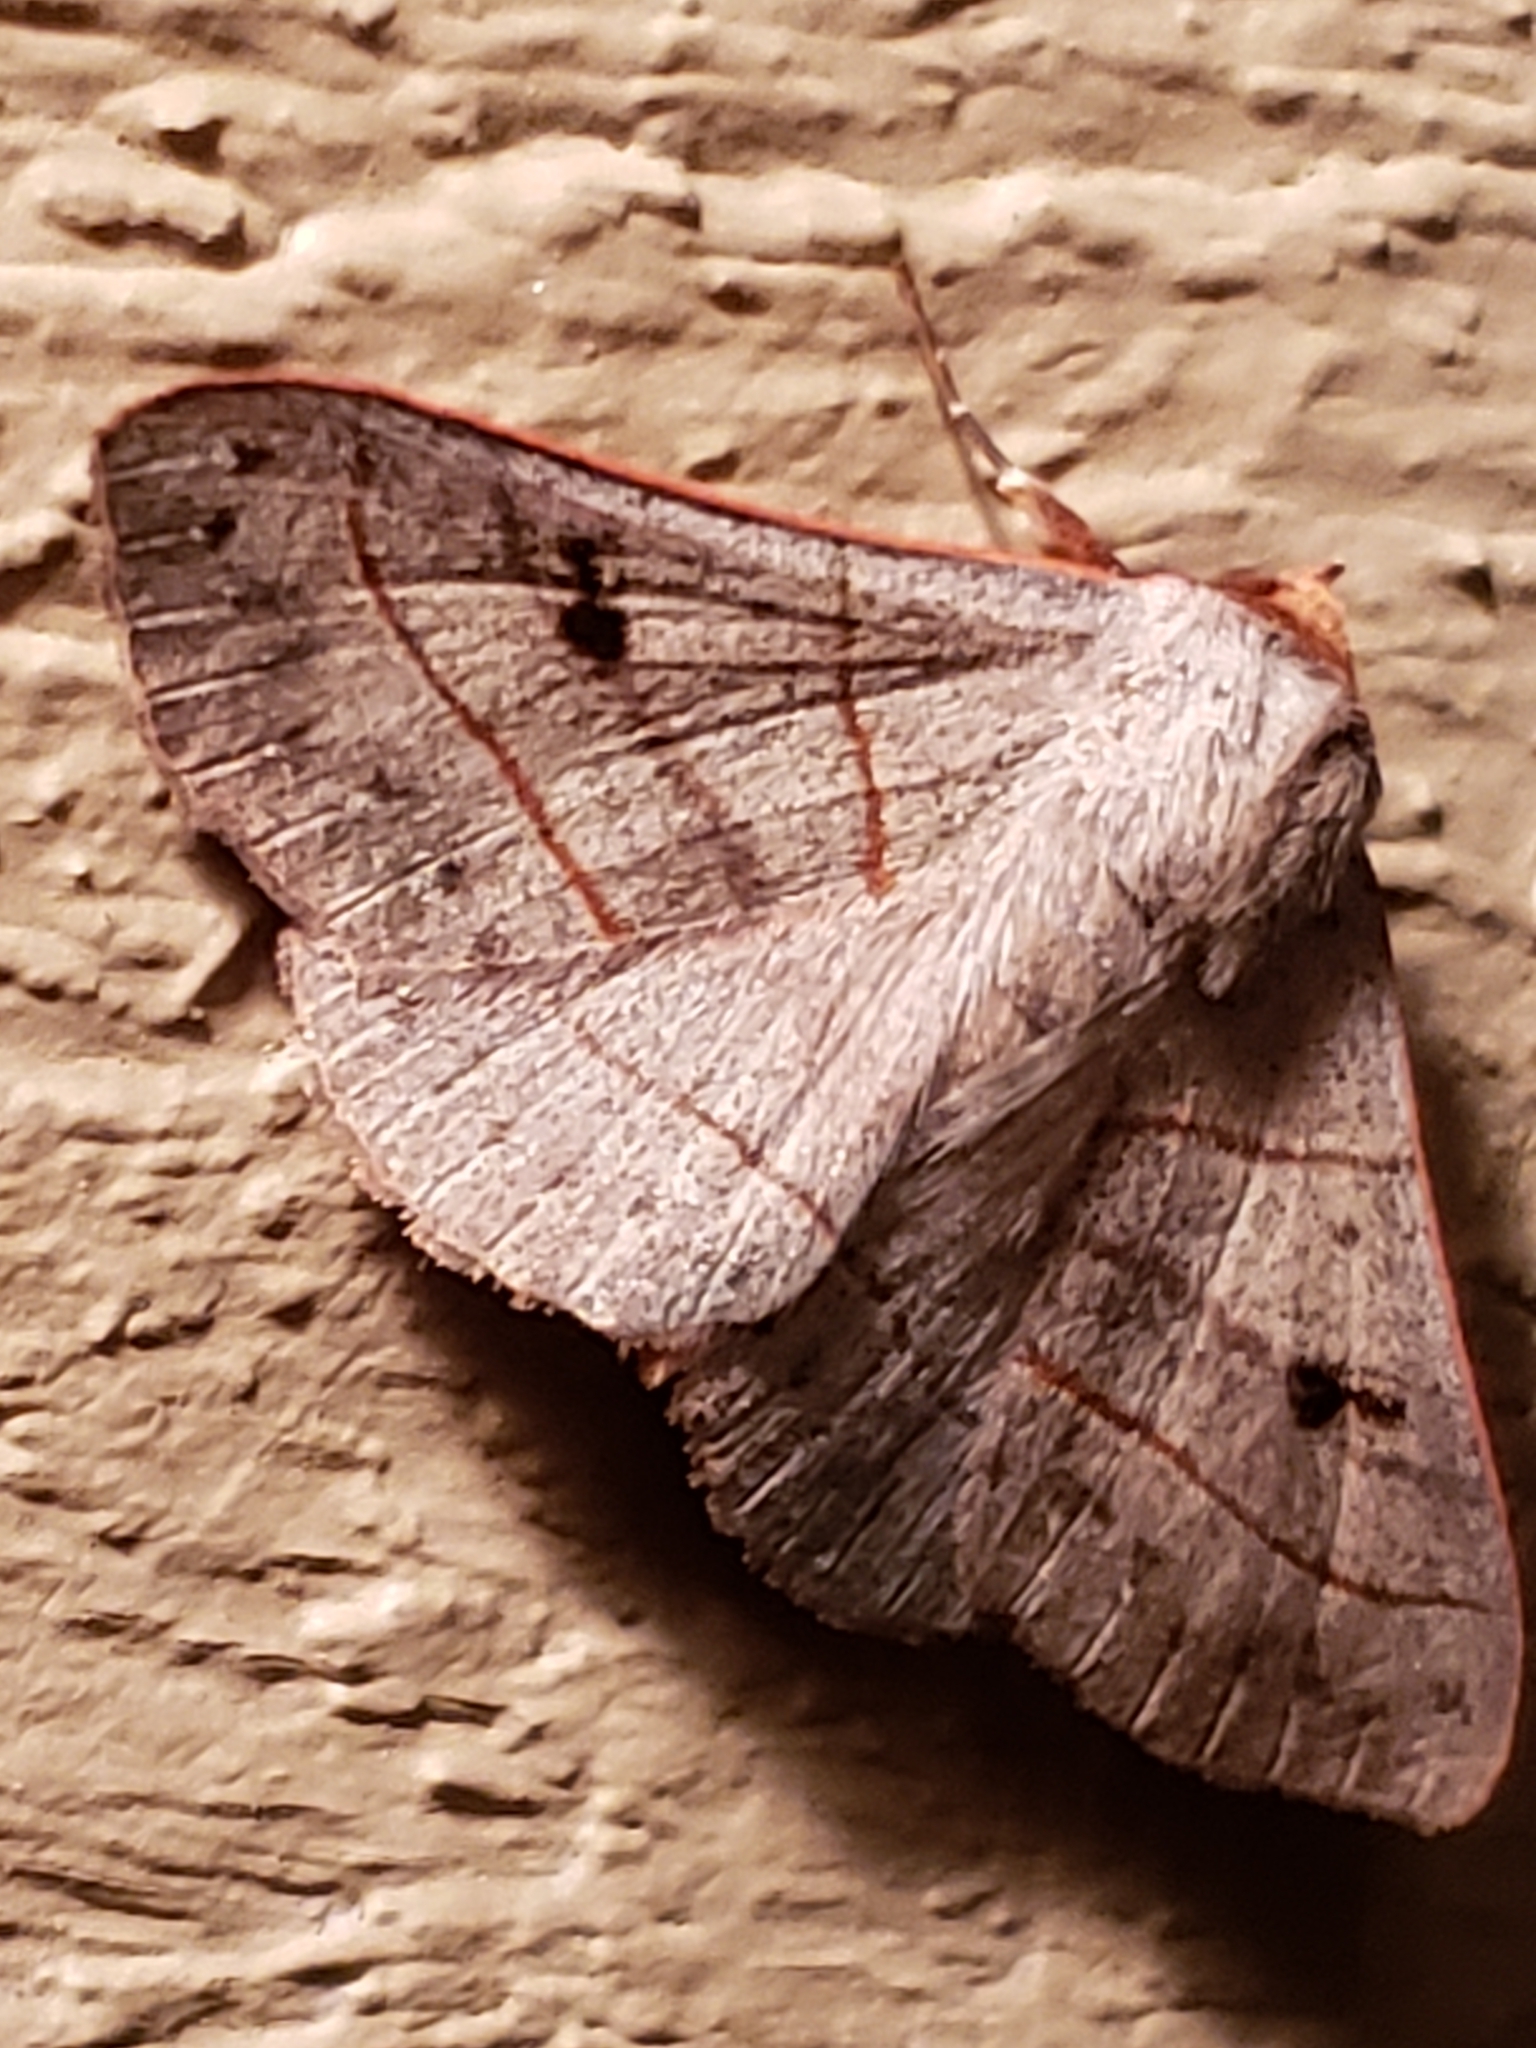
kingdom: Animalia
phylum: Arthropoda
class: Insecta
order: Lepidoptera
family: Erebidae
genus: Panopoda
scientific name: Panopoda rufimargo
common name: Red-lined panopoda moth
